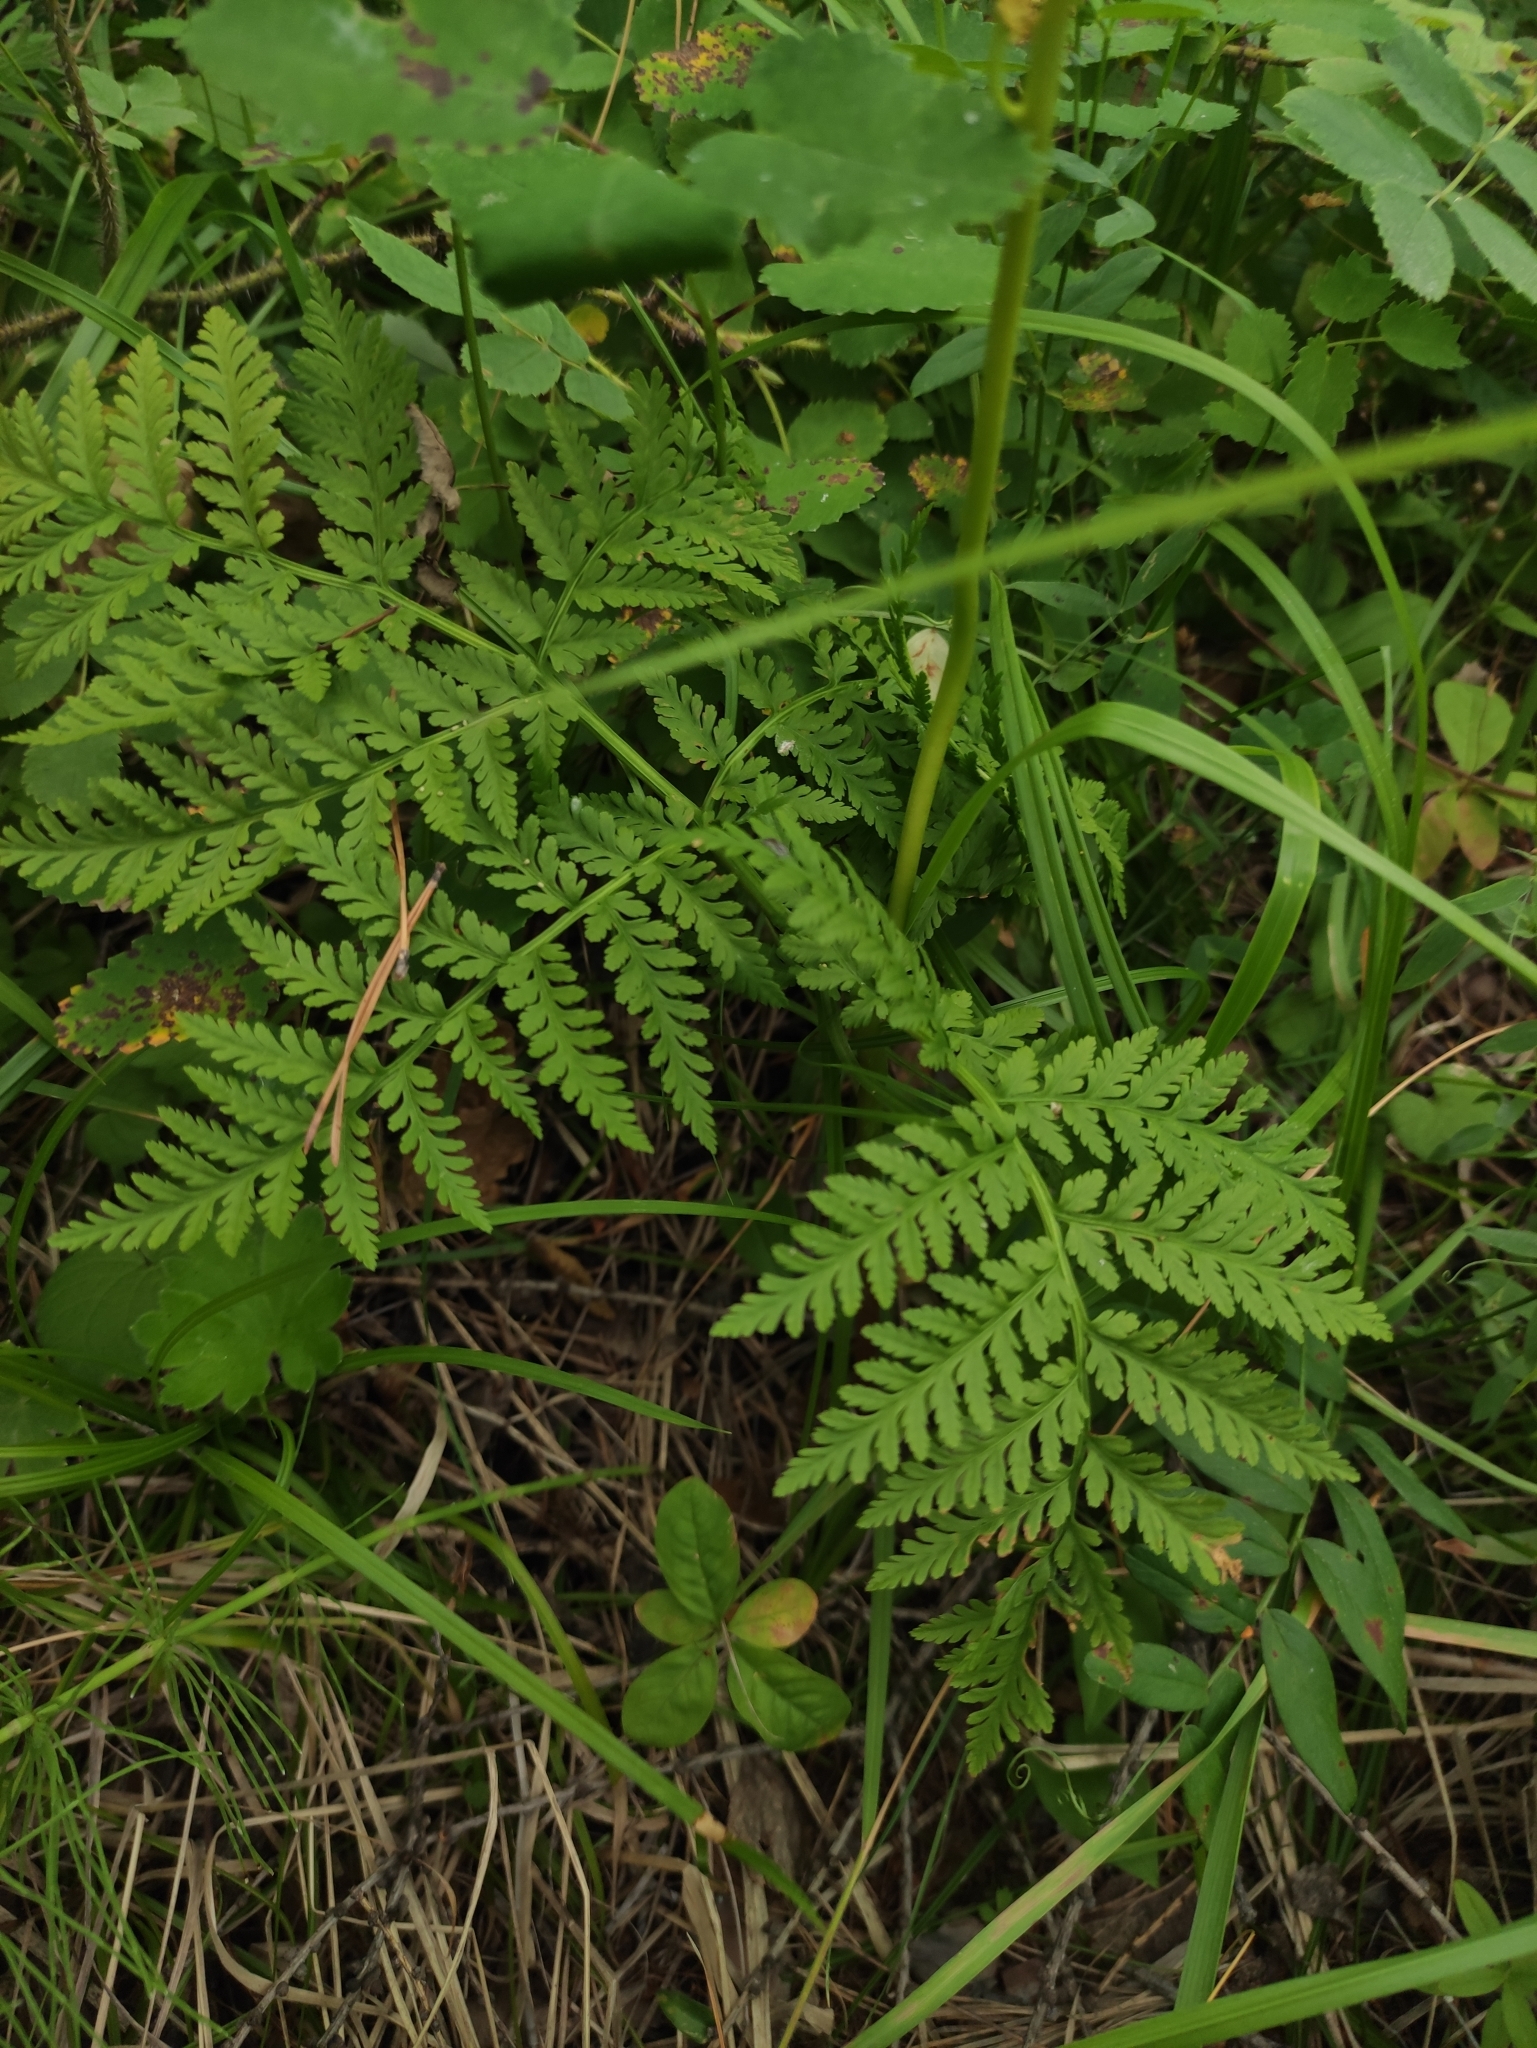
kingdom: Plantae
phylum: Tracheophyta
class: Polypodiopsida
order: Ophioglossales
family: Ophioglossaceae
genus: Botrypus
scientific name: Botrypus virginianus
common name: Common grapefern
